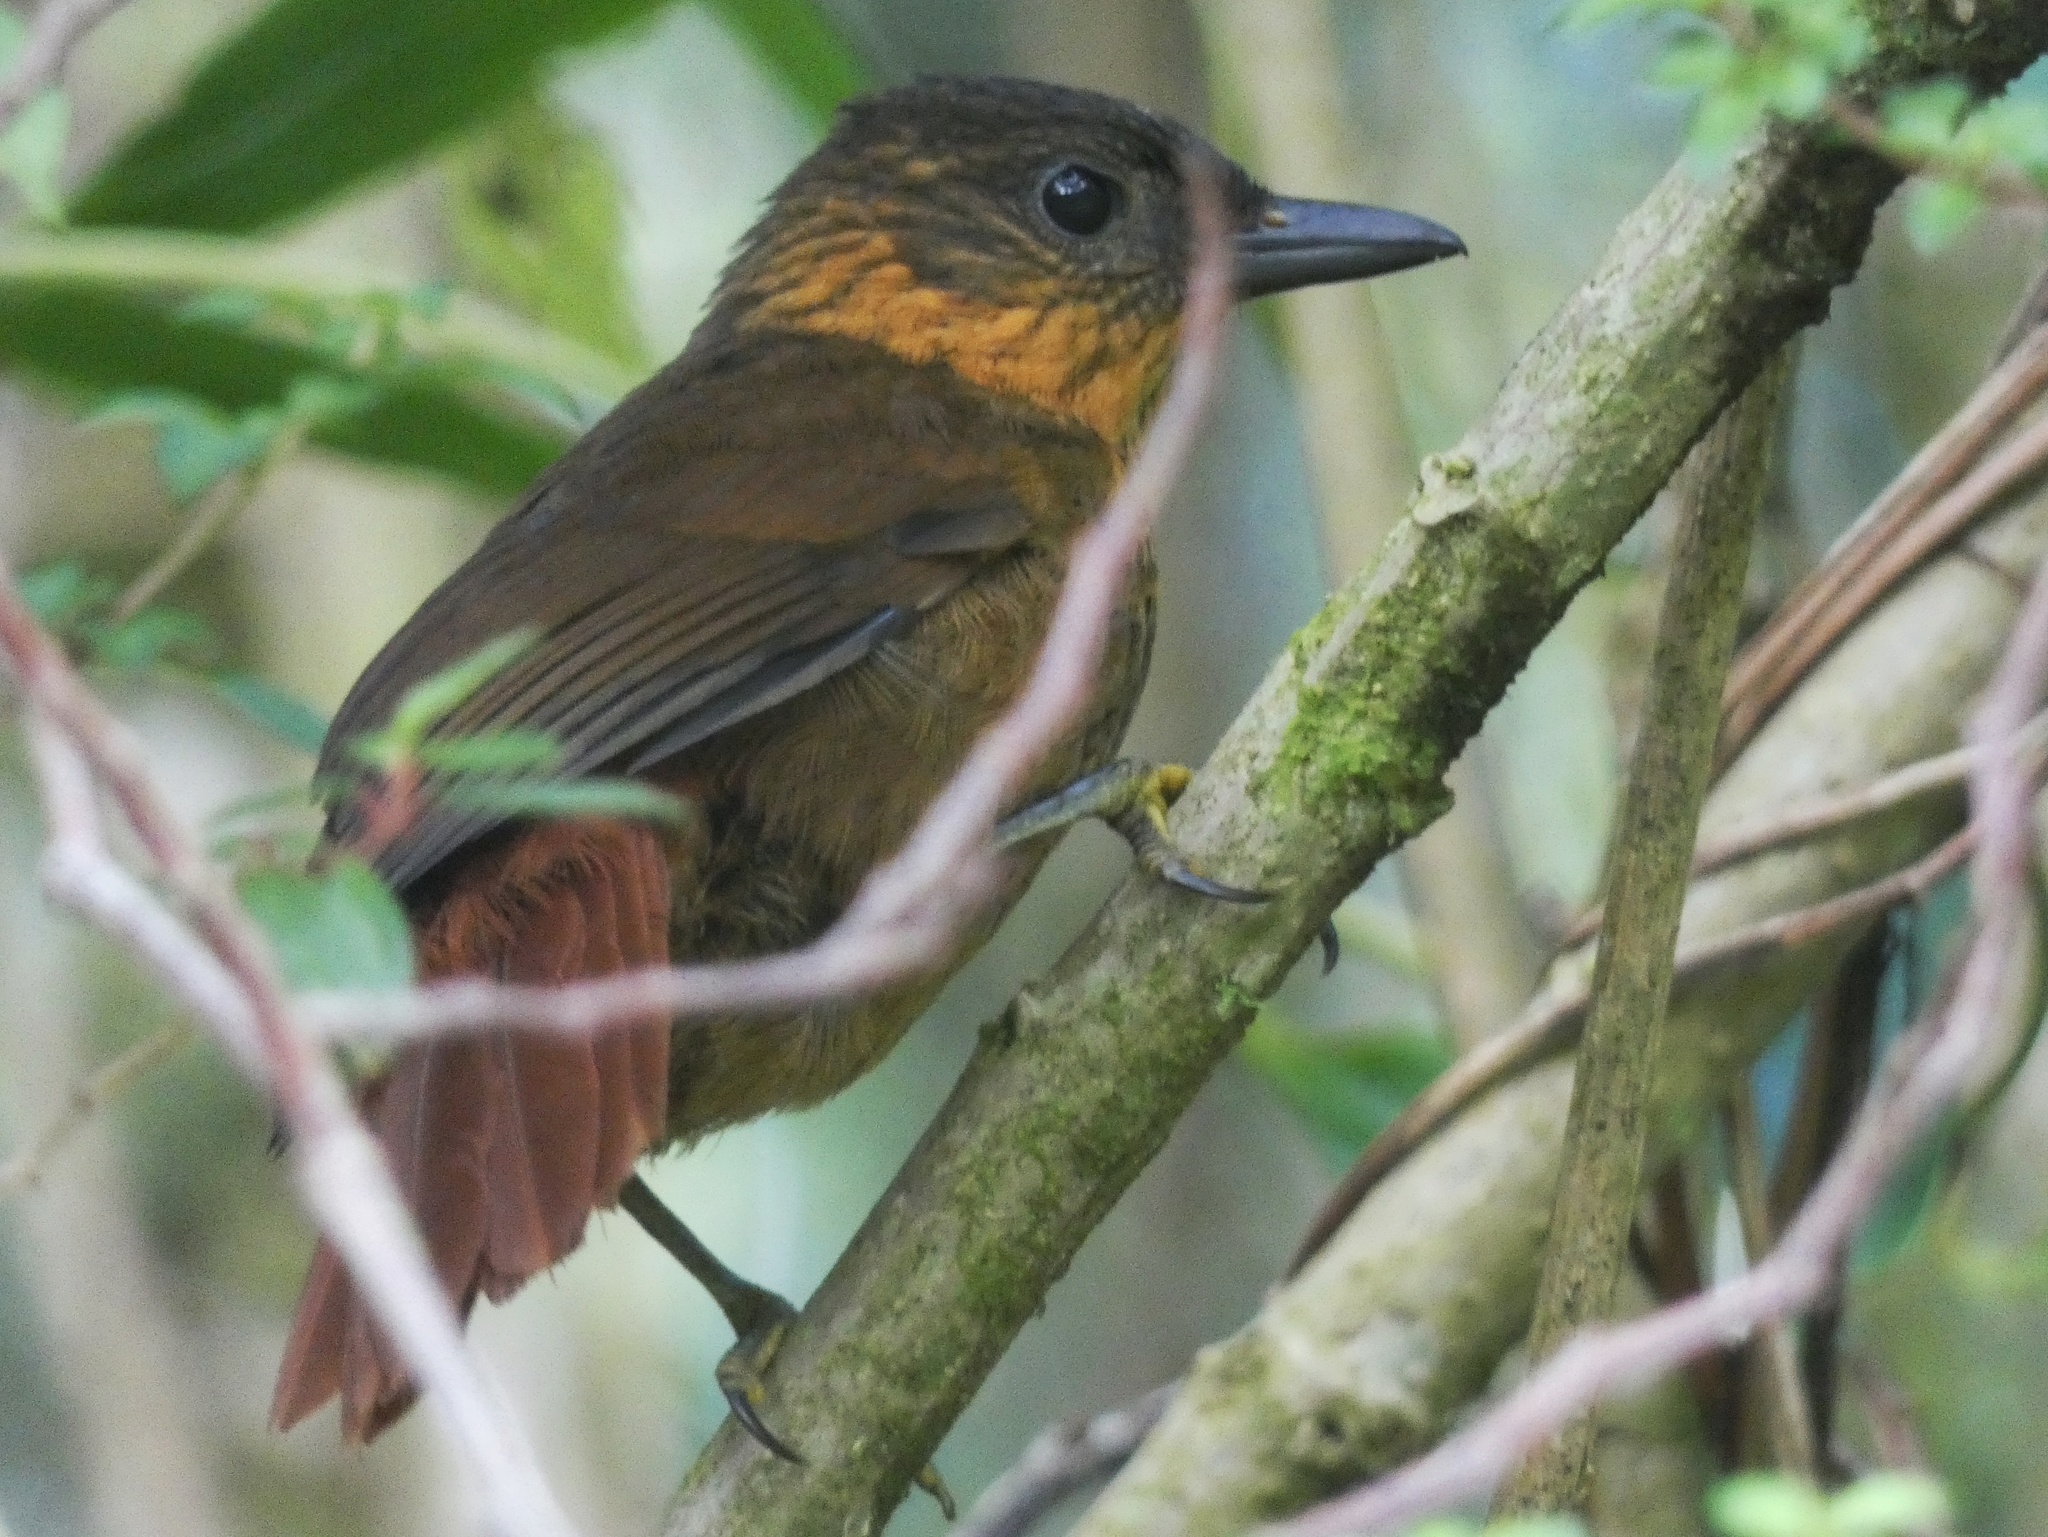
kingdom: Animalia
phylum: Chordata
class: Aves
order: Passeriformes
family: Furnariidae
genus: Thripadectes
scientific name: Thripadectes rufobrunneus
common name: Streak-breasted treehunter
